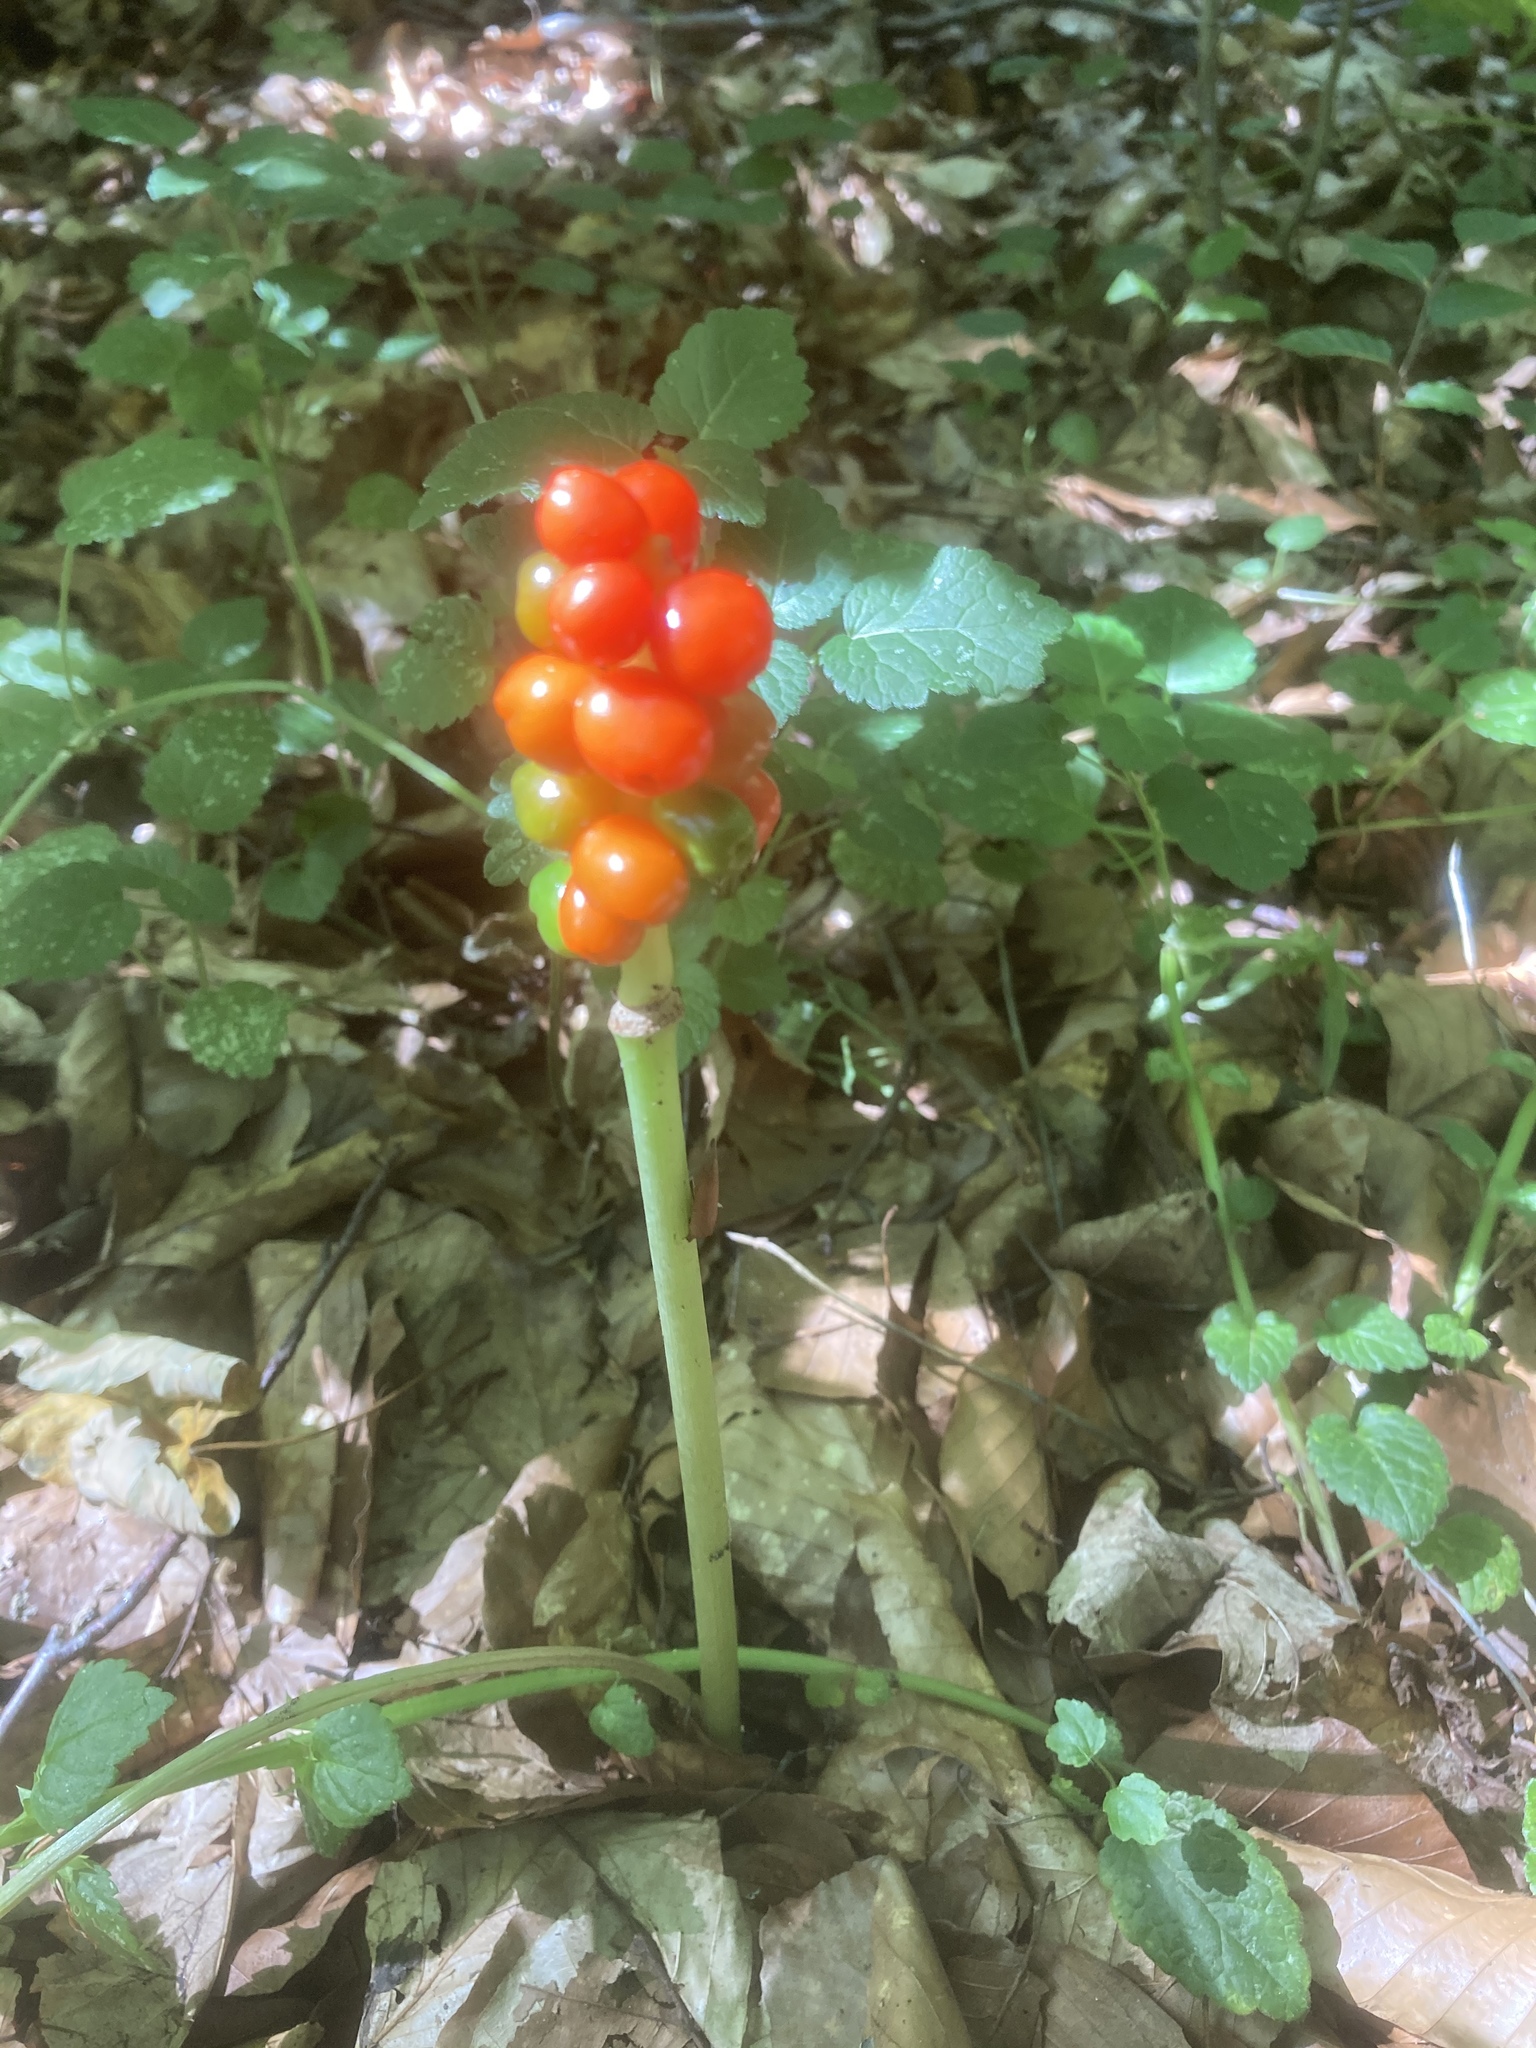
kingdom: Plantae
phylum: Tracheophyta
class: Liliopsida
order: Alismatales
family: Araceae
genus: Arum
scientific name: Arum maculatum
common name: Lords-and-ladies
